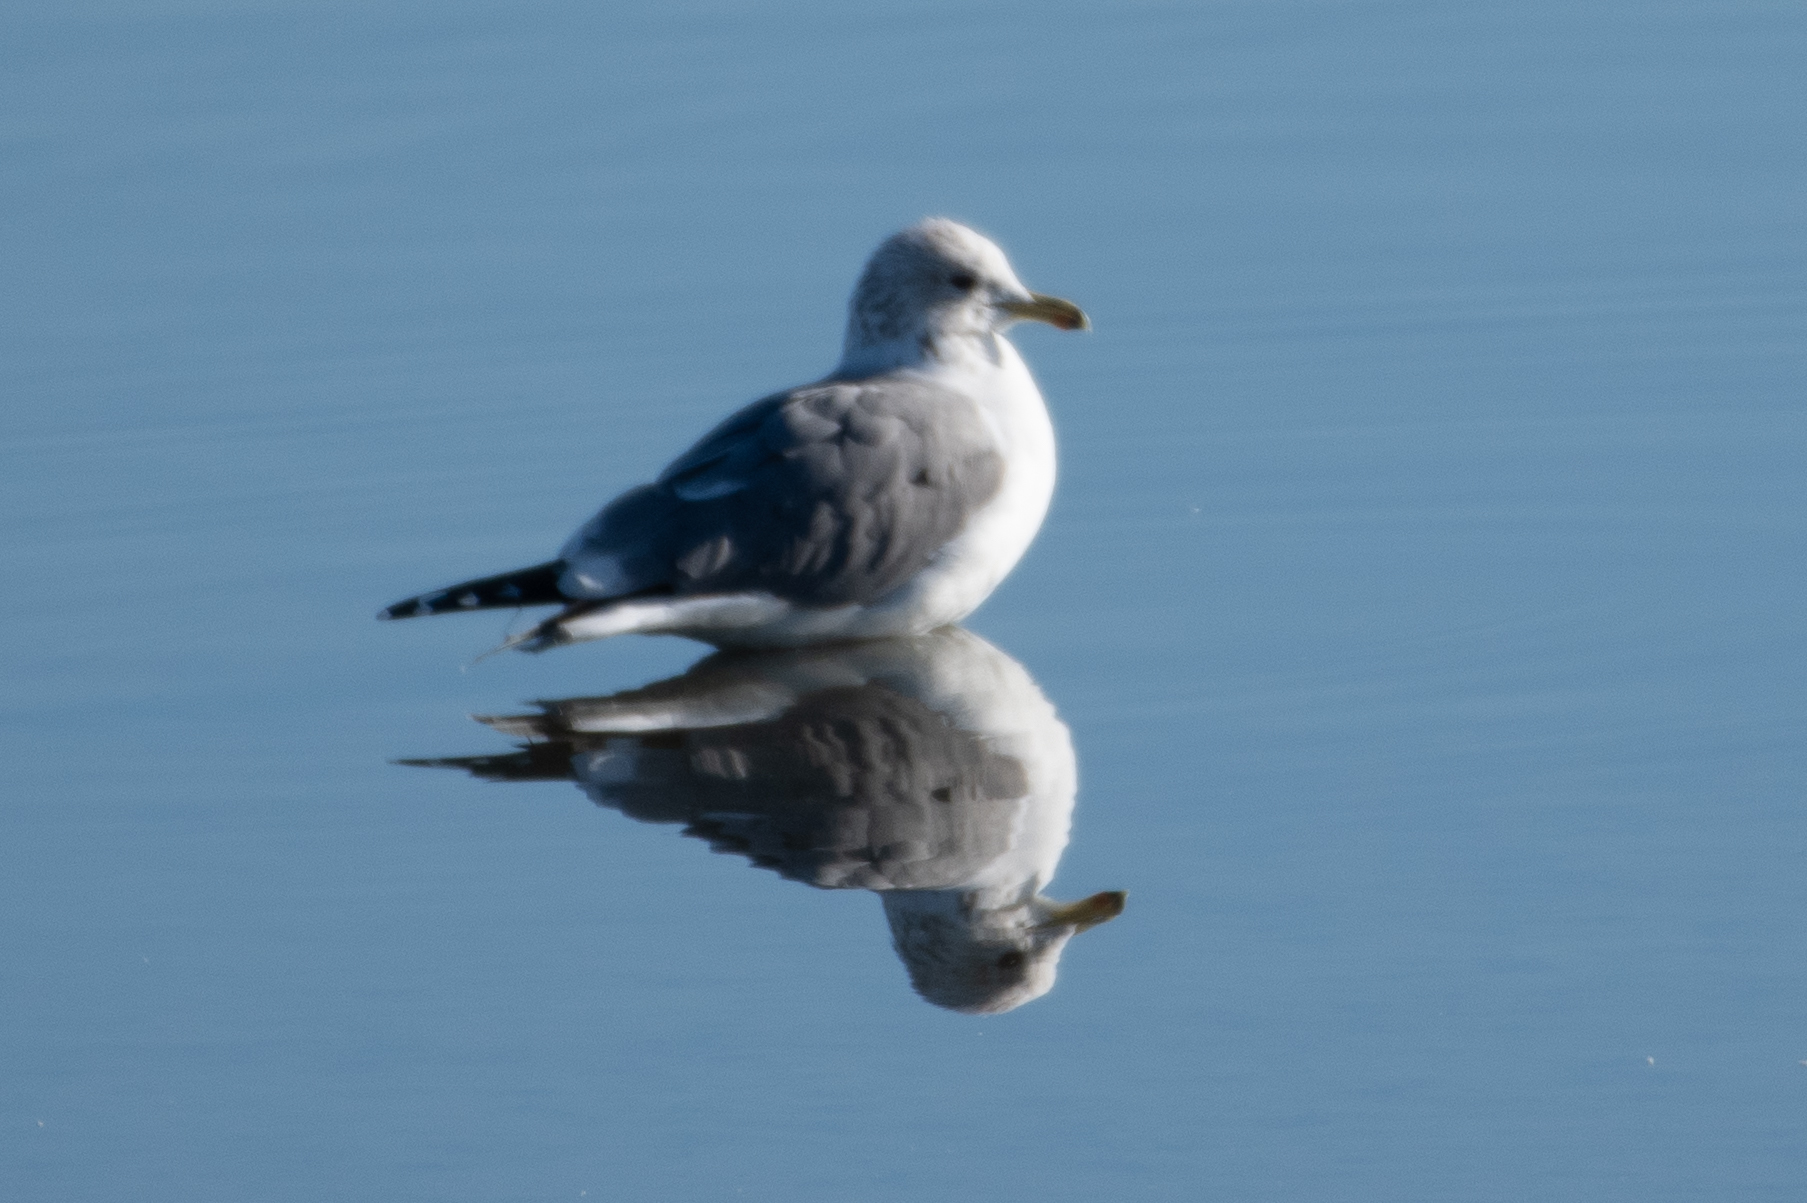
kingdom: Animalia
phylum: Chordata
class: Aves
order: Charadriiformes
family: Laridae
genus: Larus
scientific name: Larus californicus
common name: California gull
